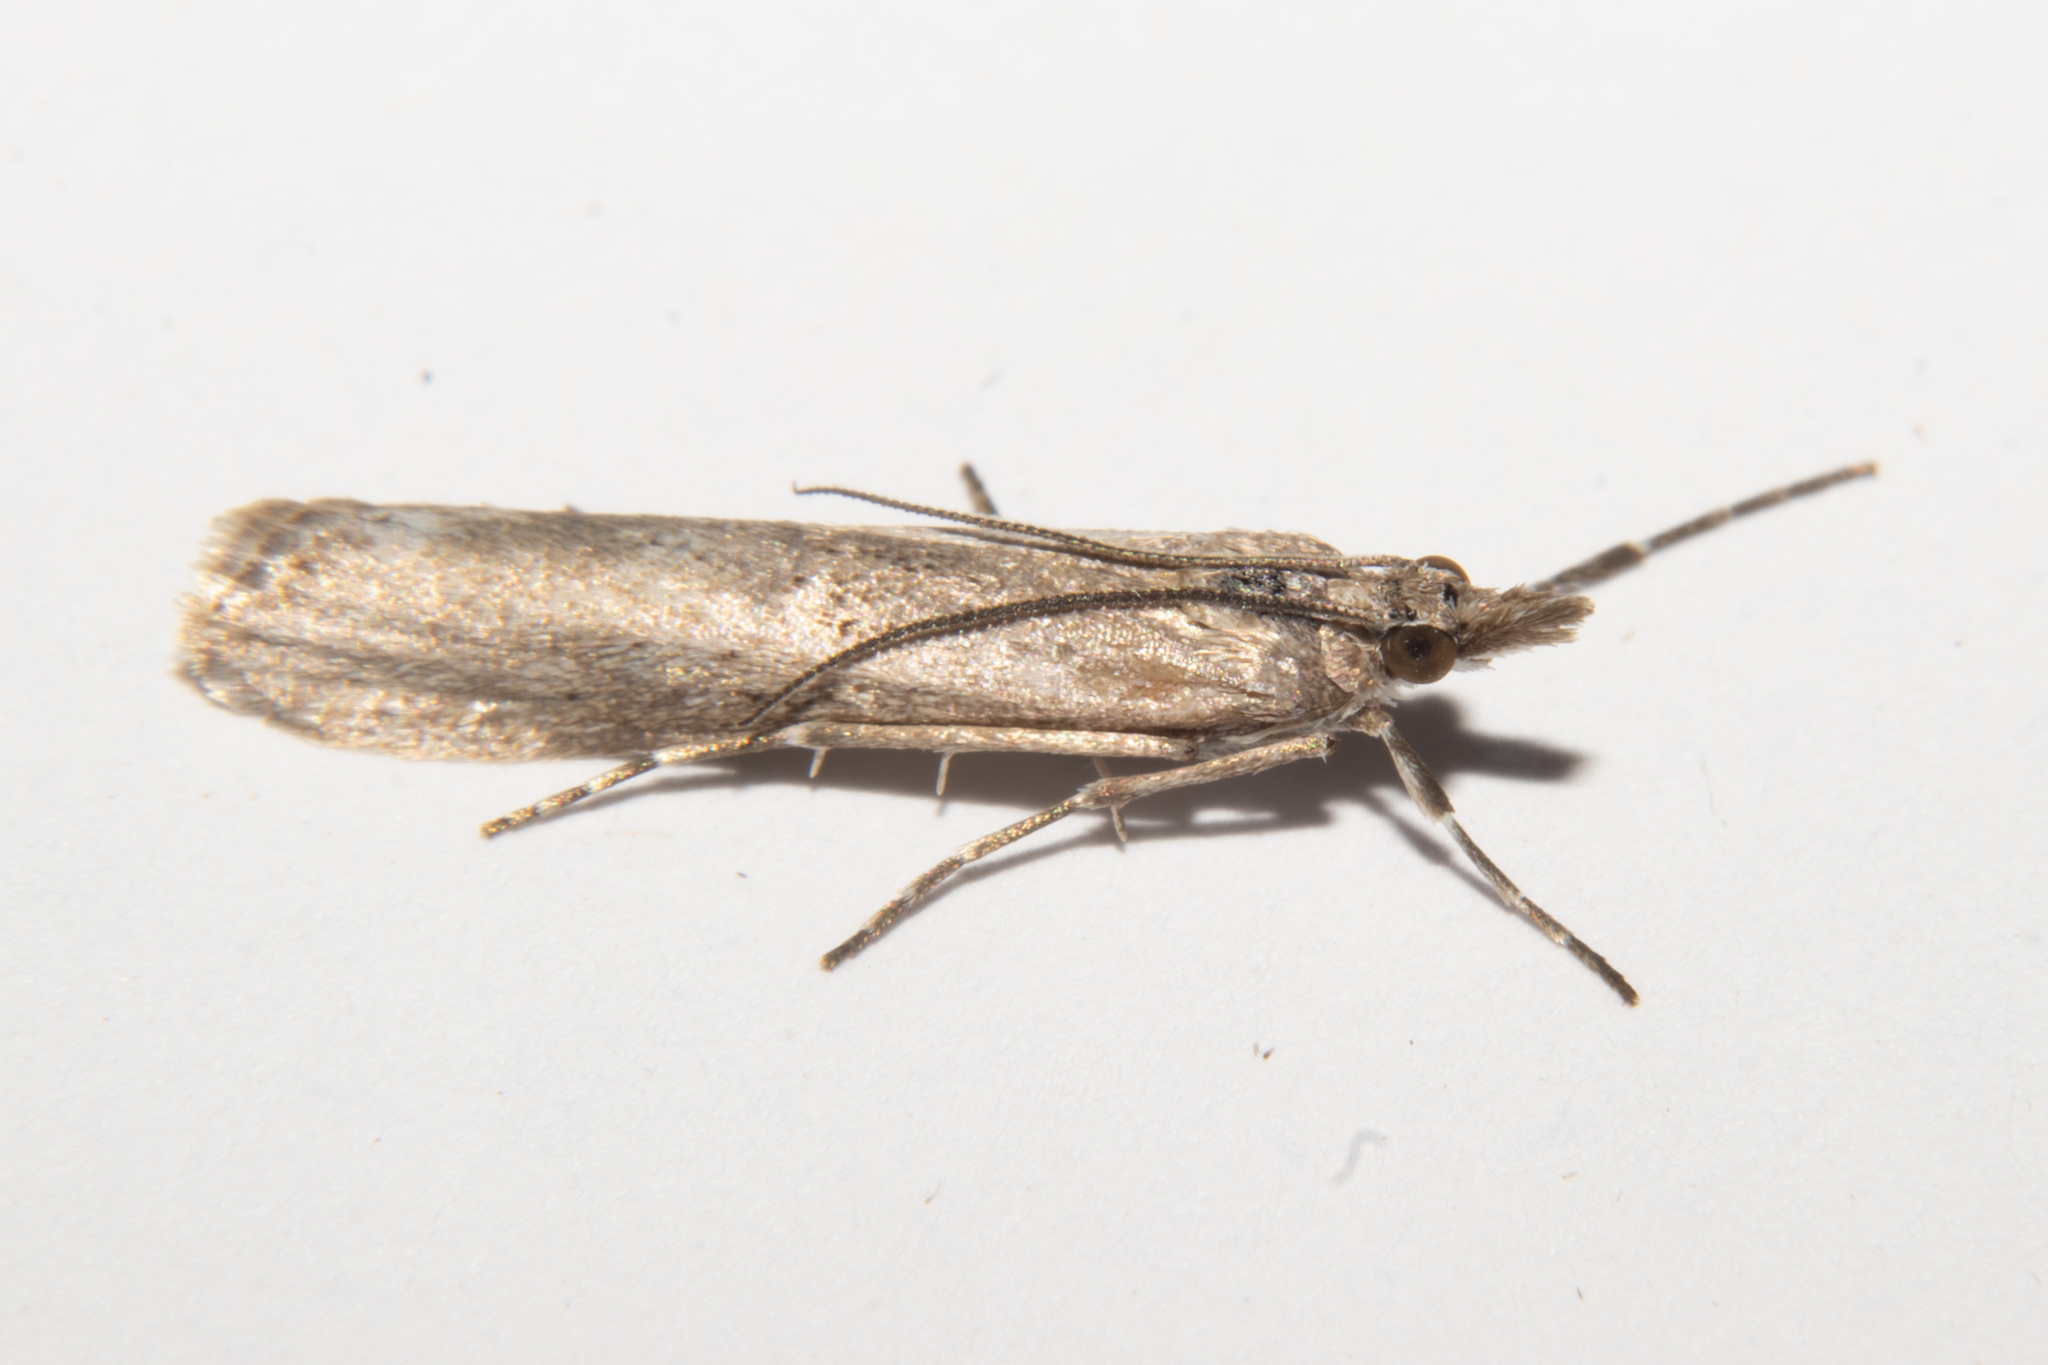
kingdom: Animalia
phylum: Arthropoda
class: Insecta
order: Lepidoptera
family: Crambidae
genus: Eudonia
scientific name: Eudonia leptalea
